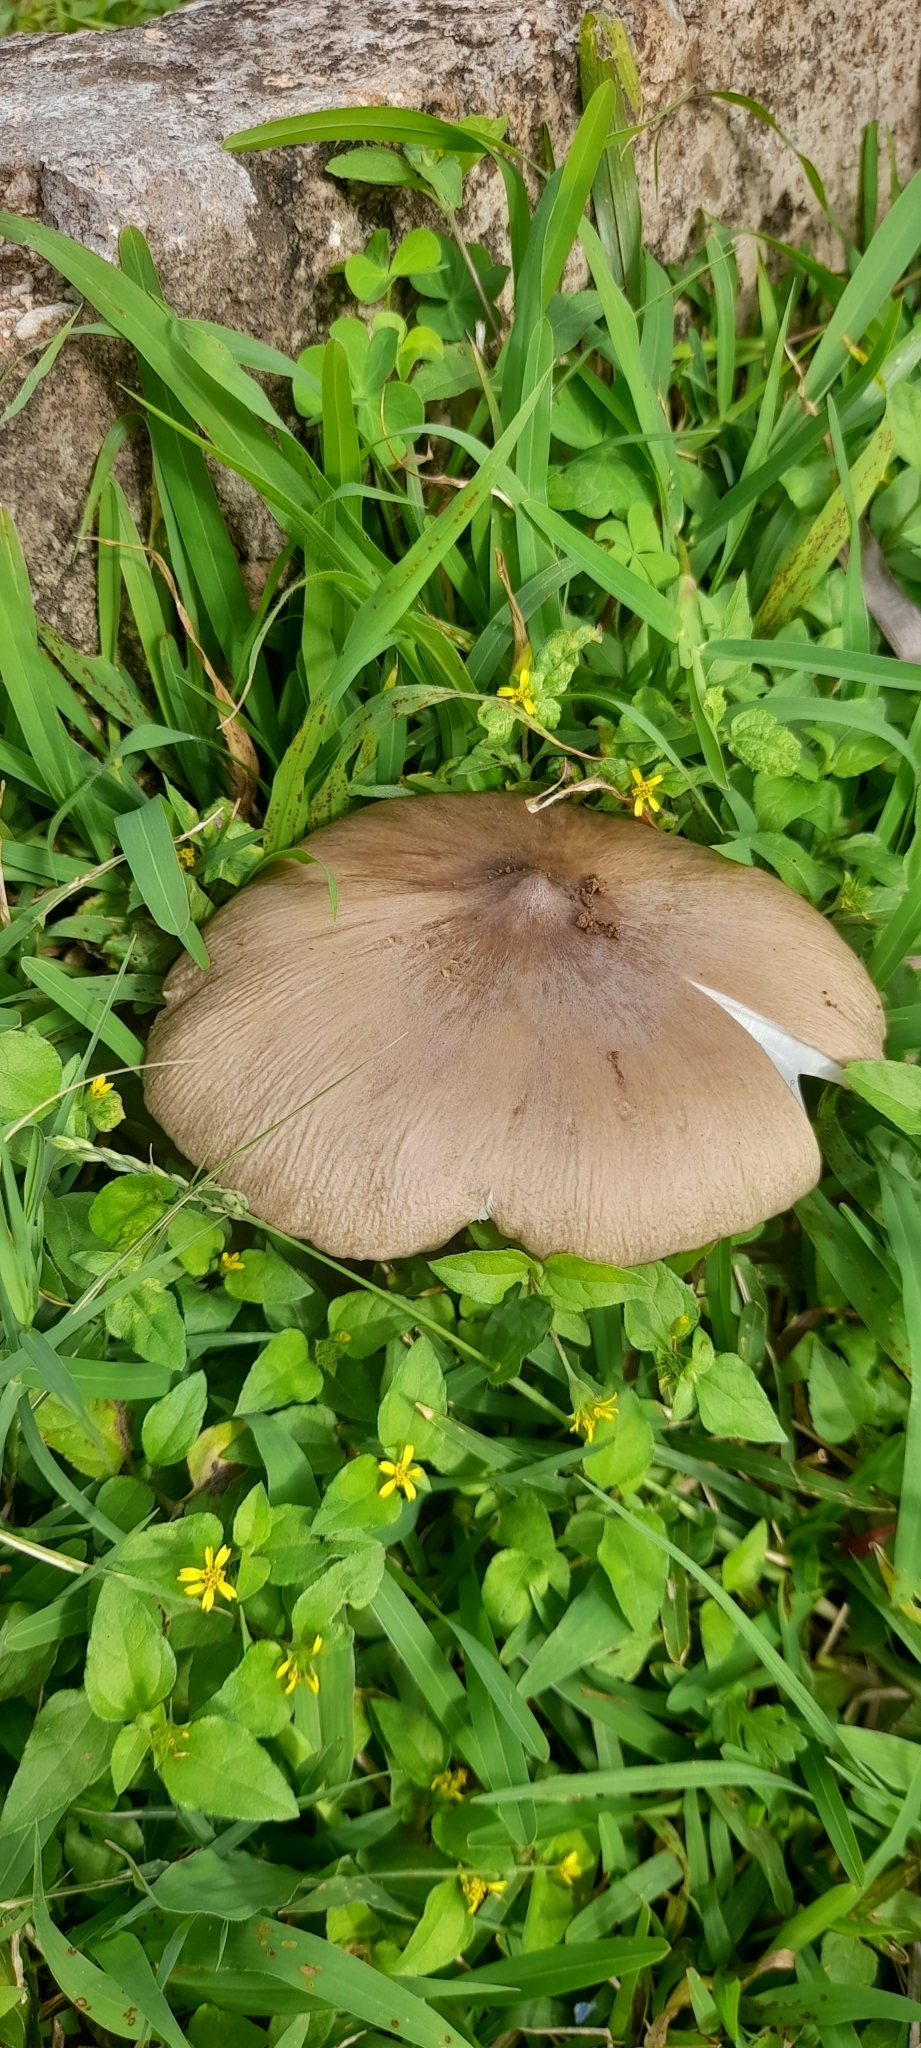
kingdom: Fungi
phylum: Basidiomycota
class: Agaricomycetes
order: Agaricales
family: Pluteaceae
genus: Pluteus
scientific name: Pluteus cervinus
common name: Deer shield
